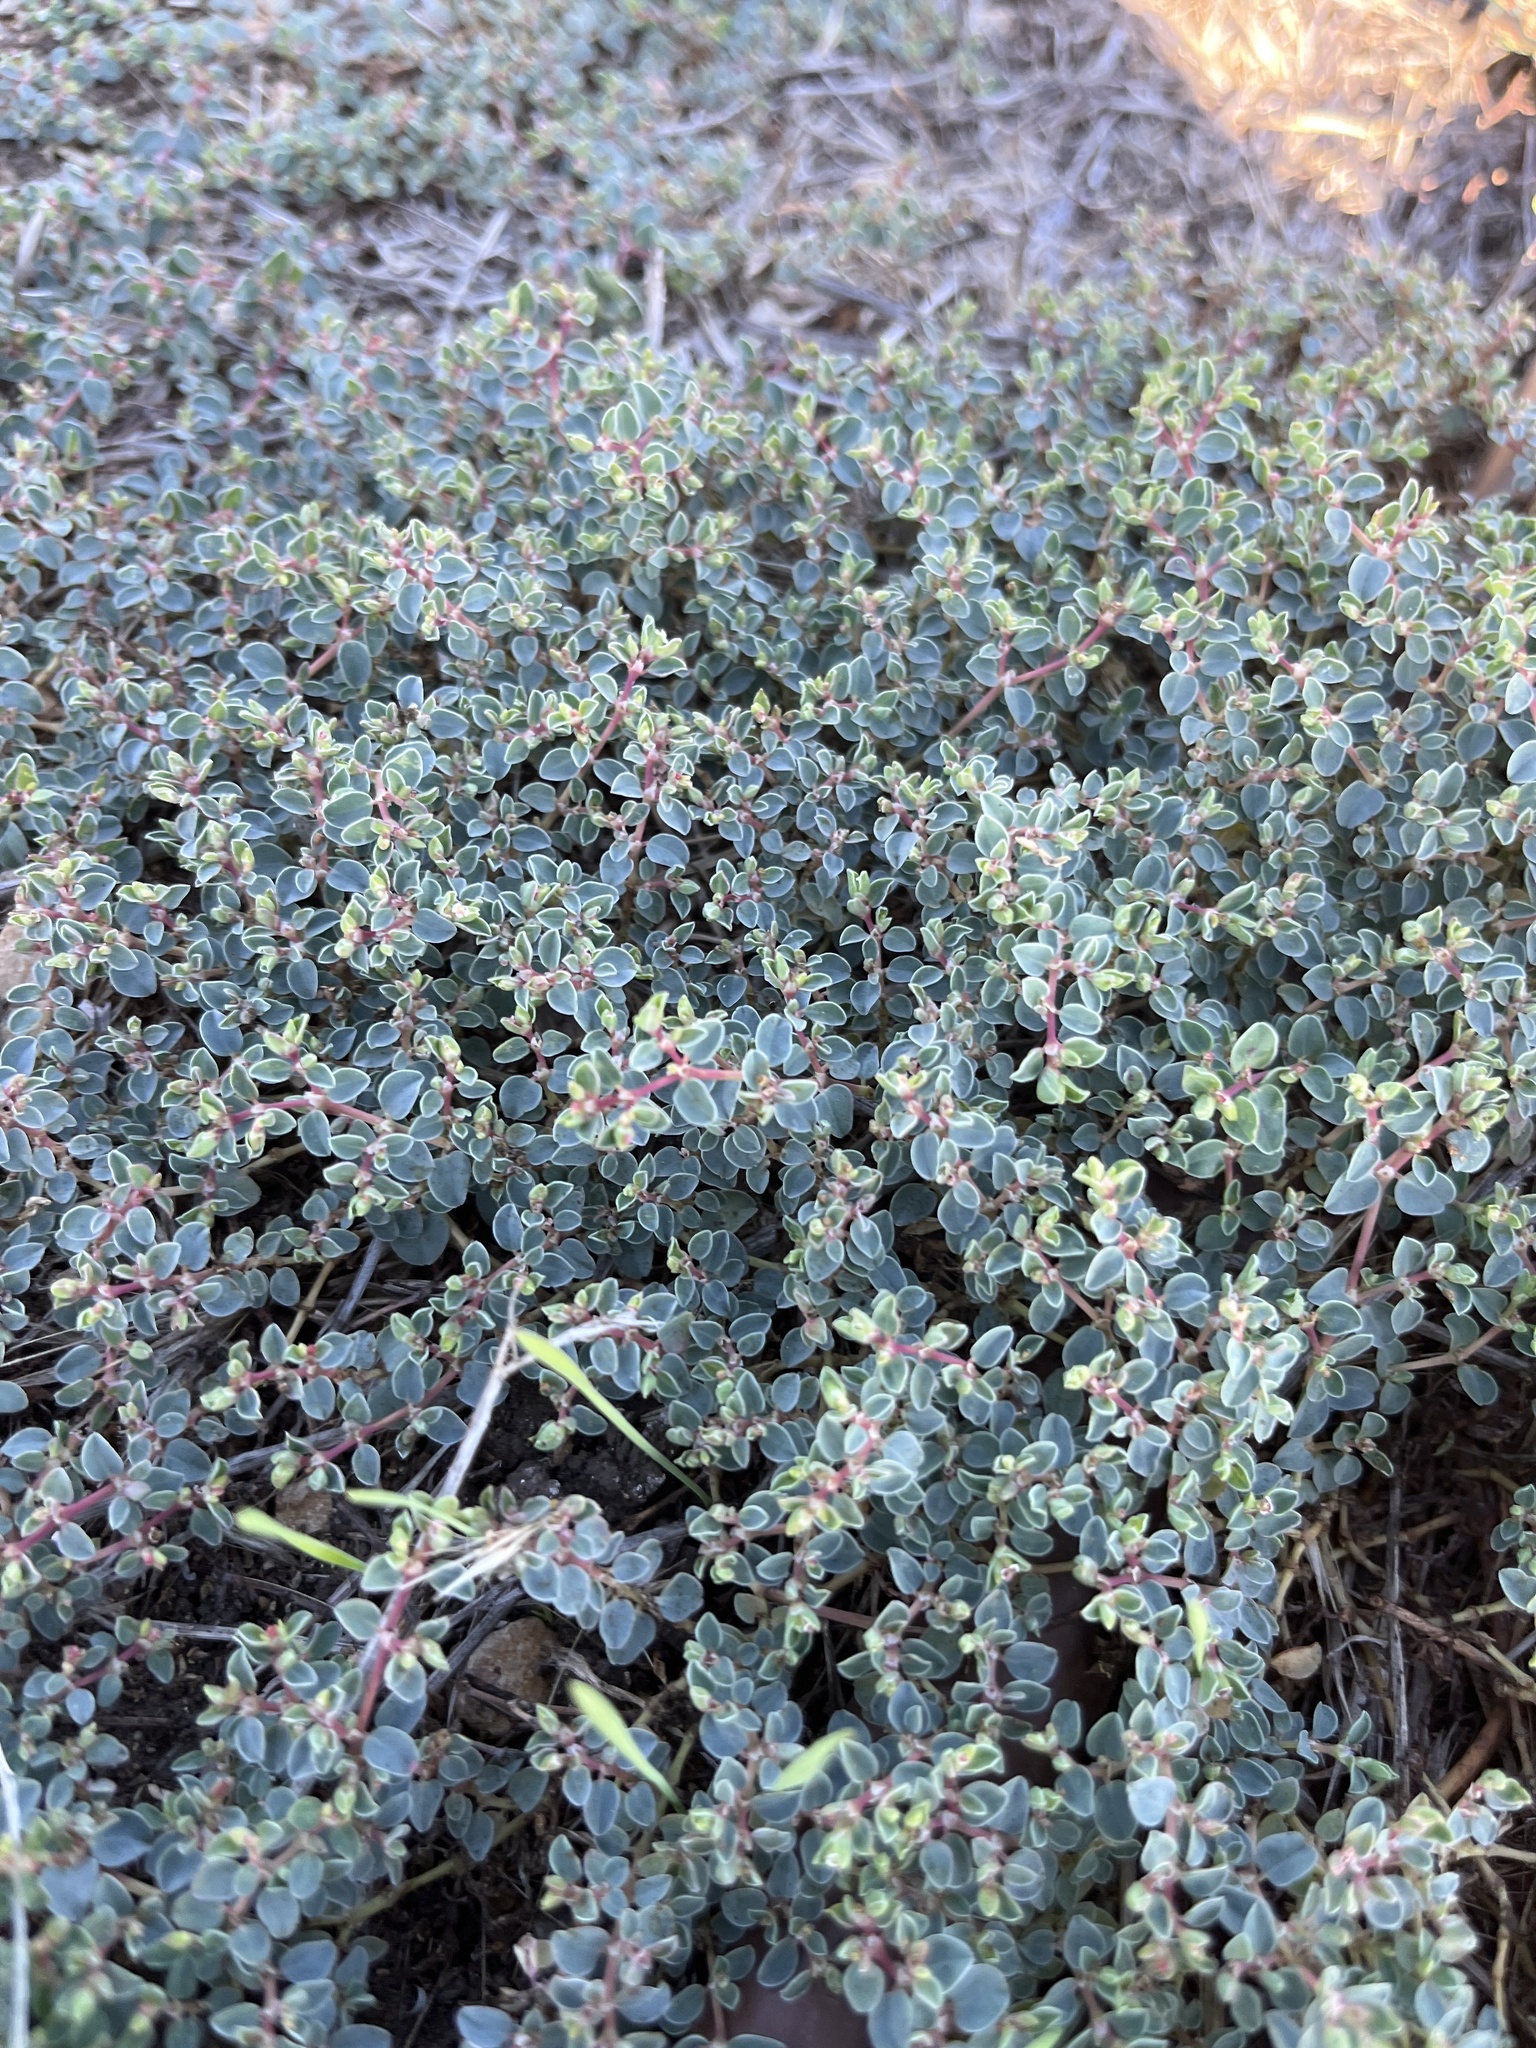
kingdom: Plantae
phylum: Tracheophyta
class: Magnoliopsida
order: Malpighiales
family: Euphorbiaceae
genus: Euphorbia
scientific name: Euphorbia albomarginata
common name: Whitemargin sandmat
